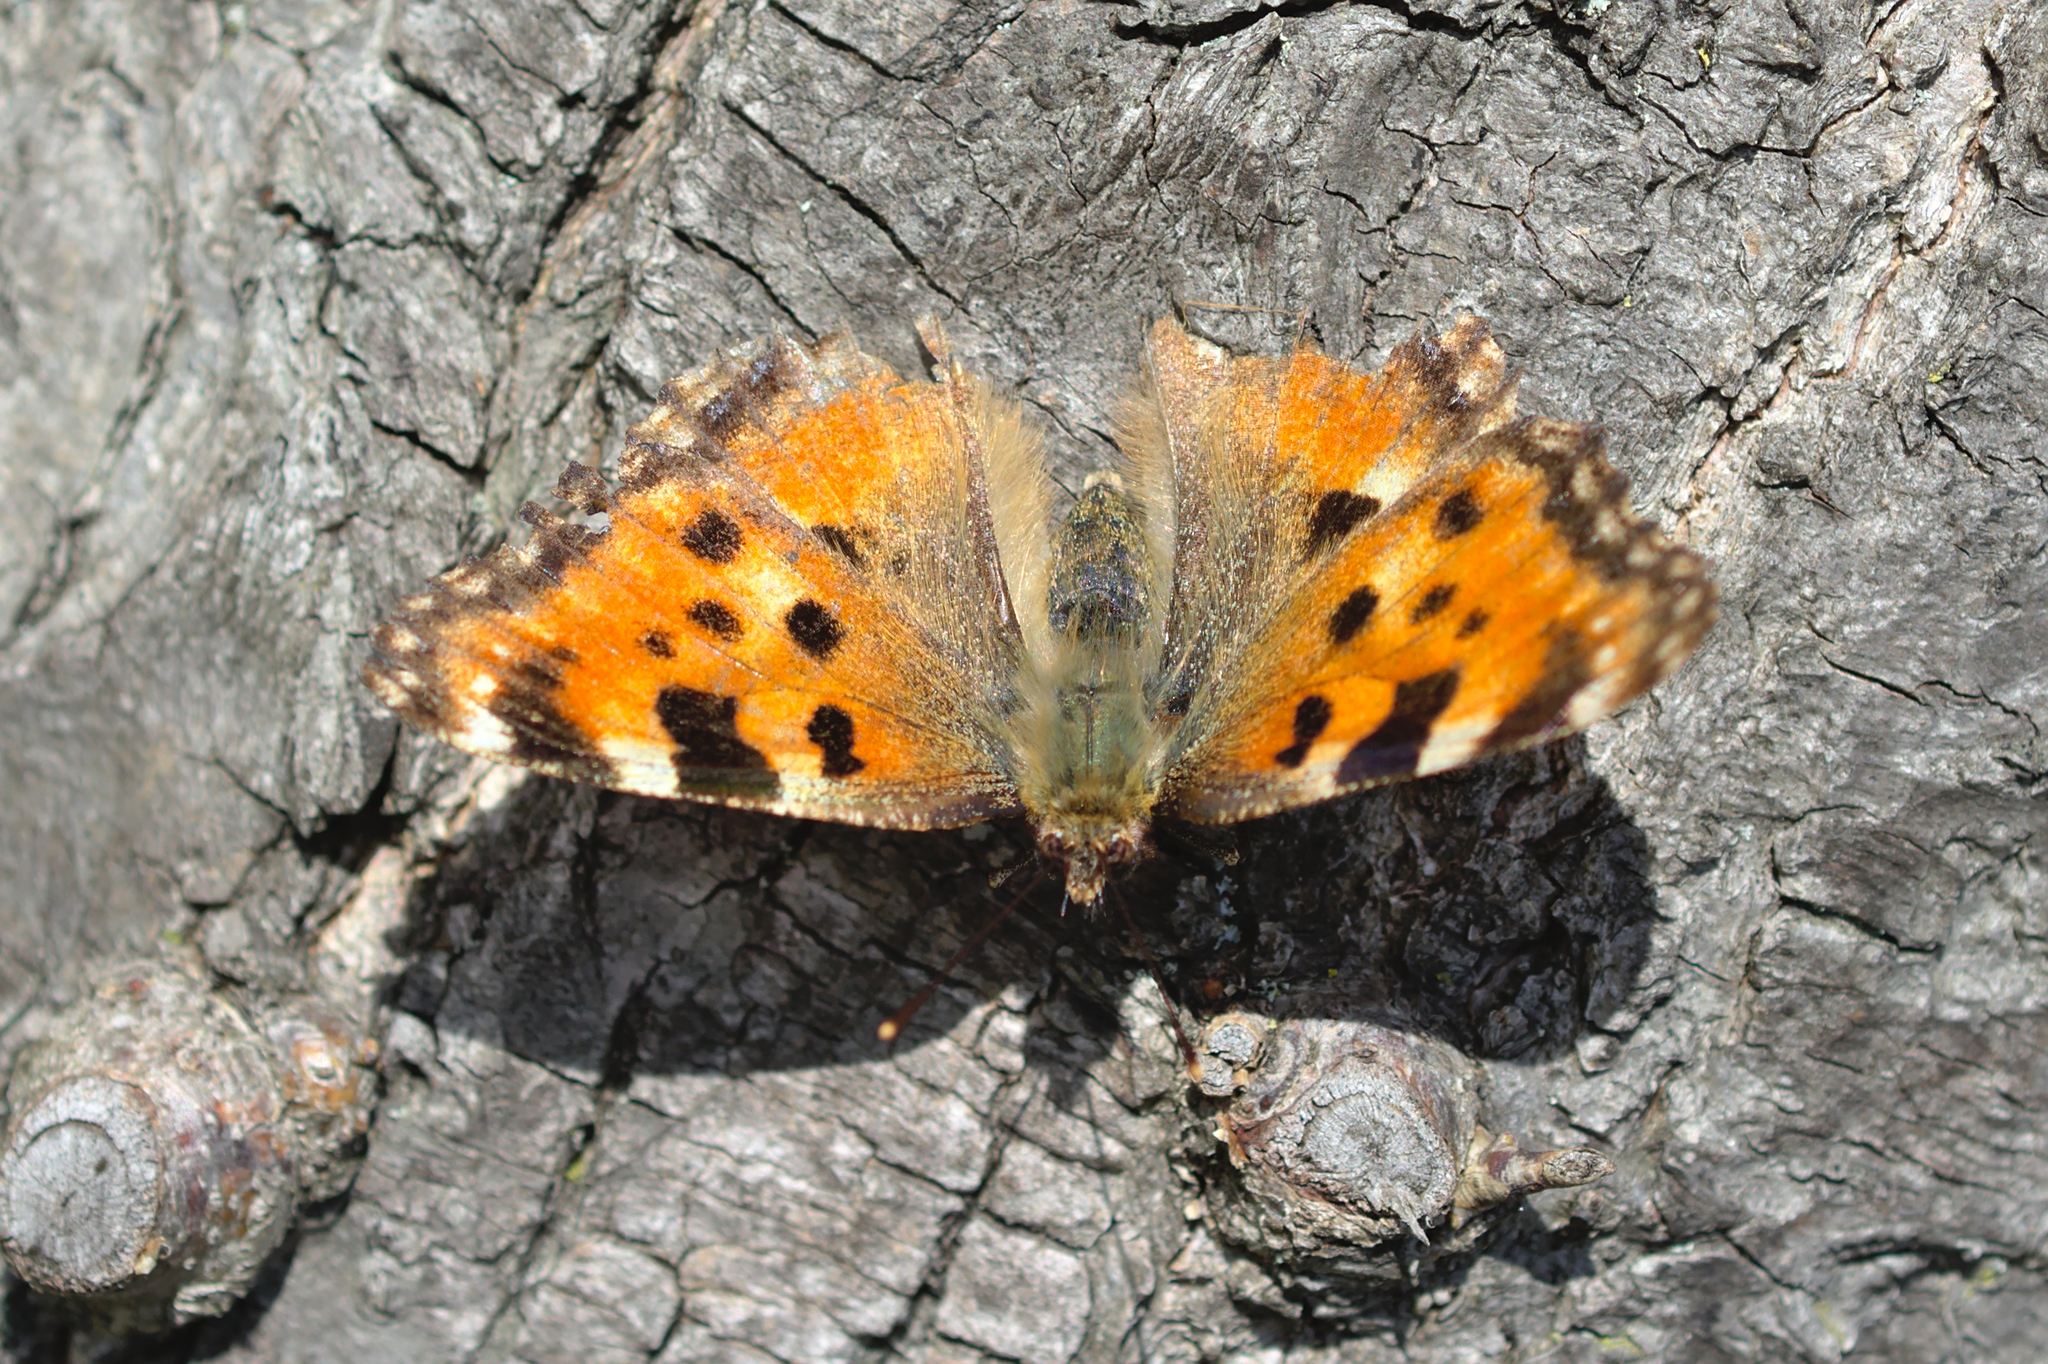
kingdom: Animalia
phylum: Arthropoda
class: Insecta
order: Lepidoptera
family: Nymphalidae
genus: Nymphalis
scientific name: Nymphalis polychloros
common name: Large tortoiseshell
